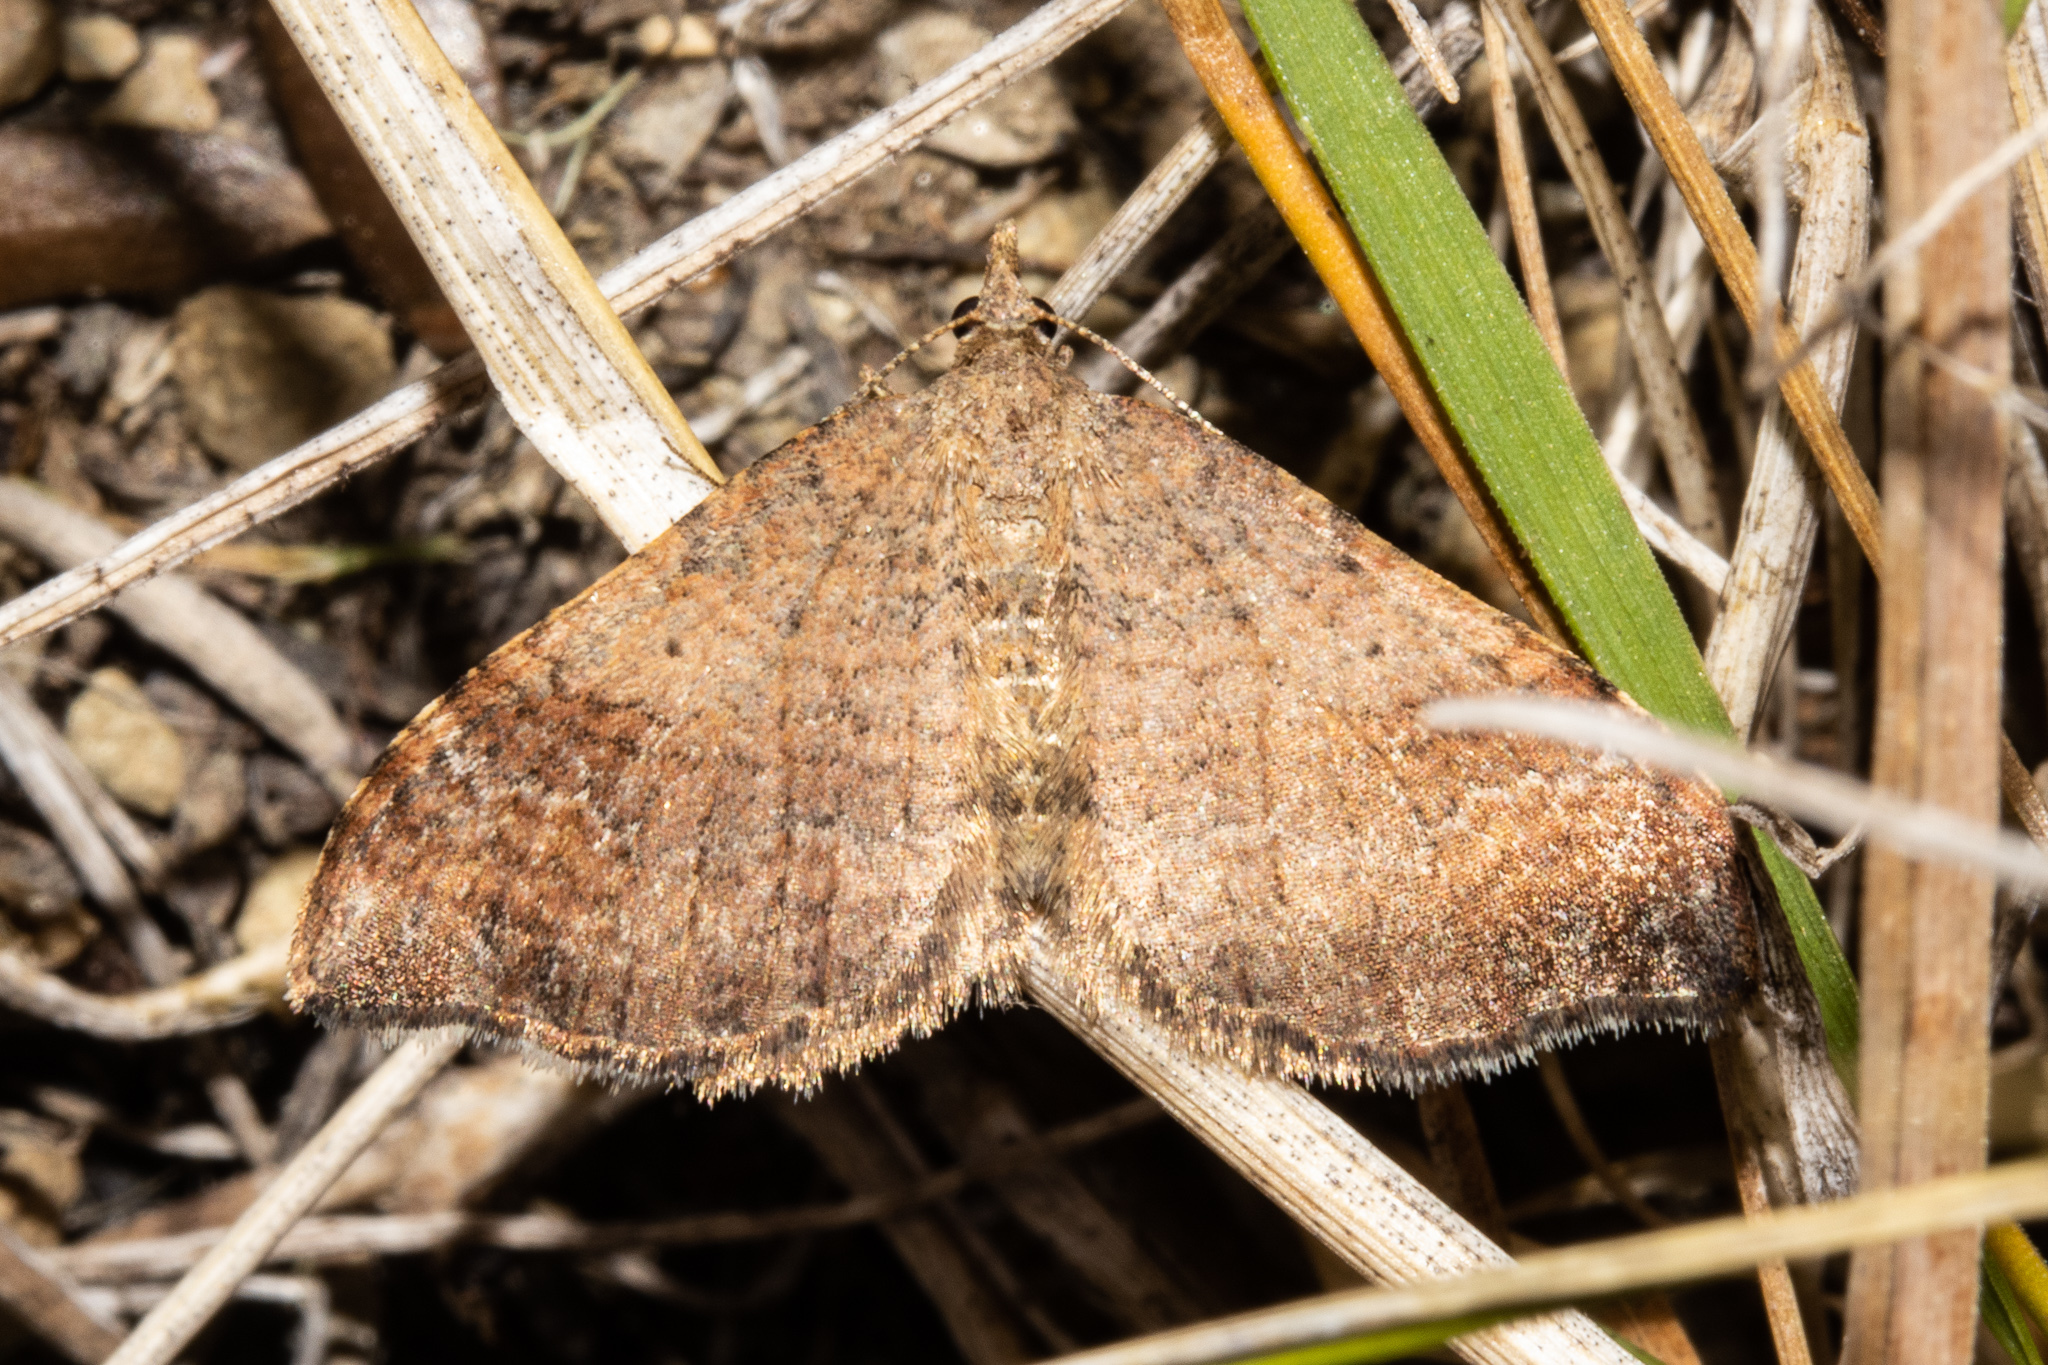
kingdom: Animalia
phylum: Arthropoda
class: Insecta
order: Lepidoptera
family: Geometridae
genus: Homodotis
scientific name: Homodotis megaspilata
